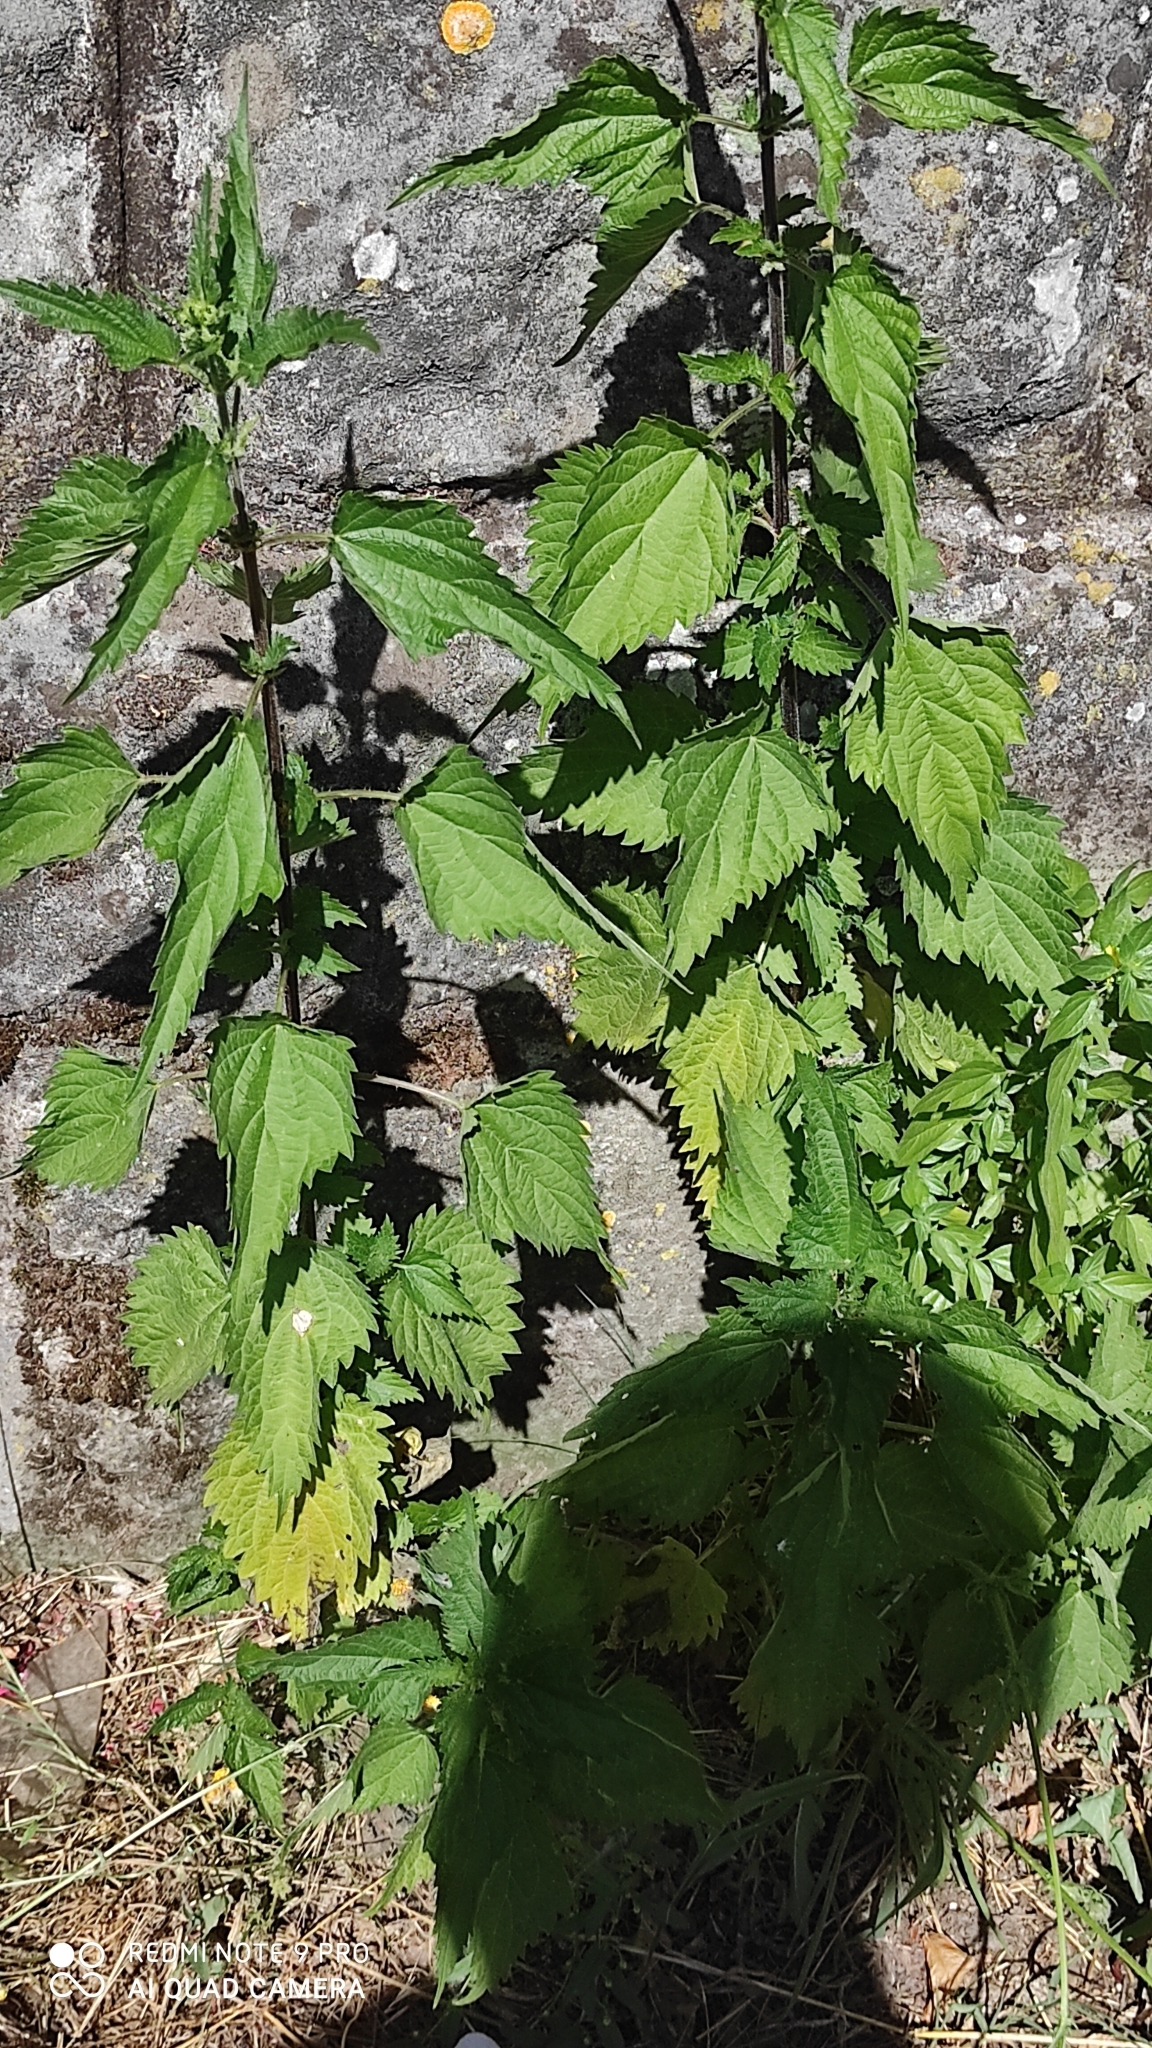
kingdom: Plantae
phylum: Tracheophyta
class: Magnoliopsida
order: Rosales
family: Urticaceae
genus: Urtica
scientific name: Urtica dioica
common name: Common nettle
